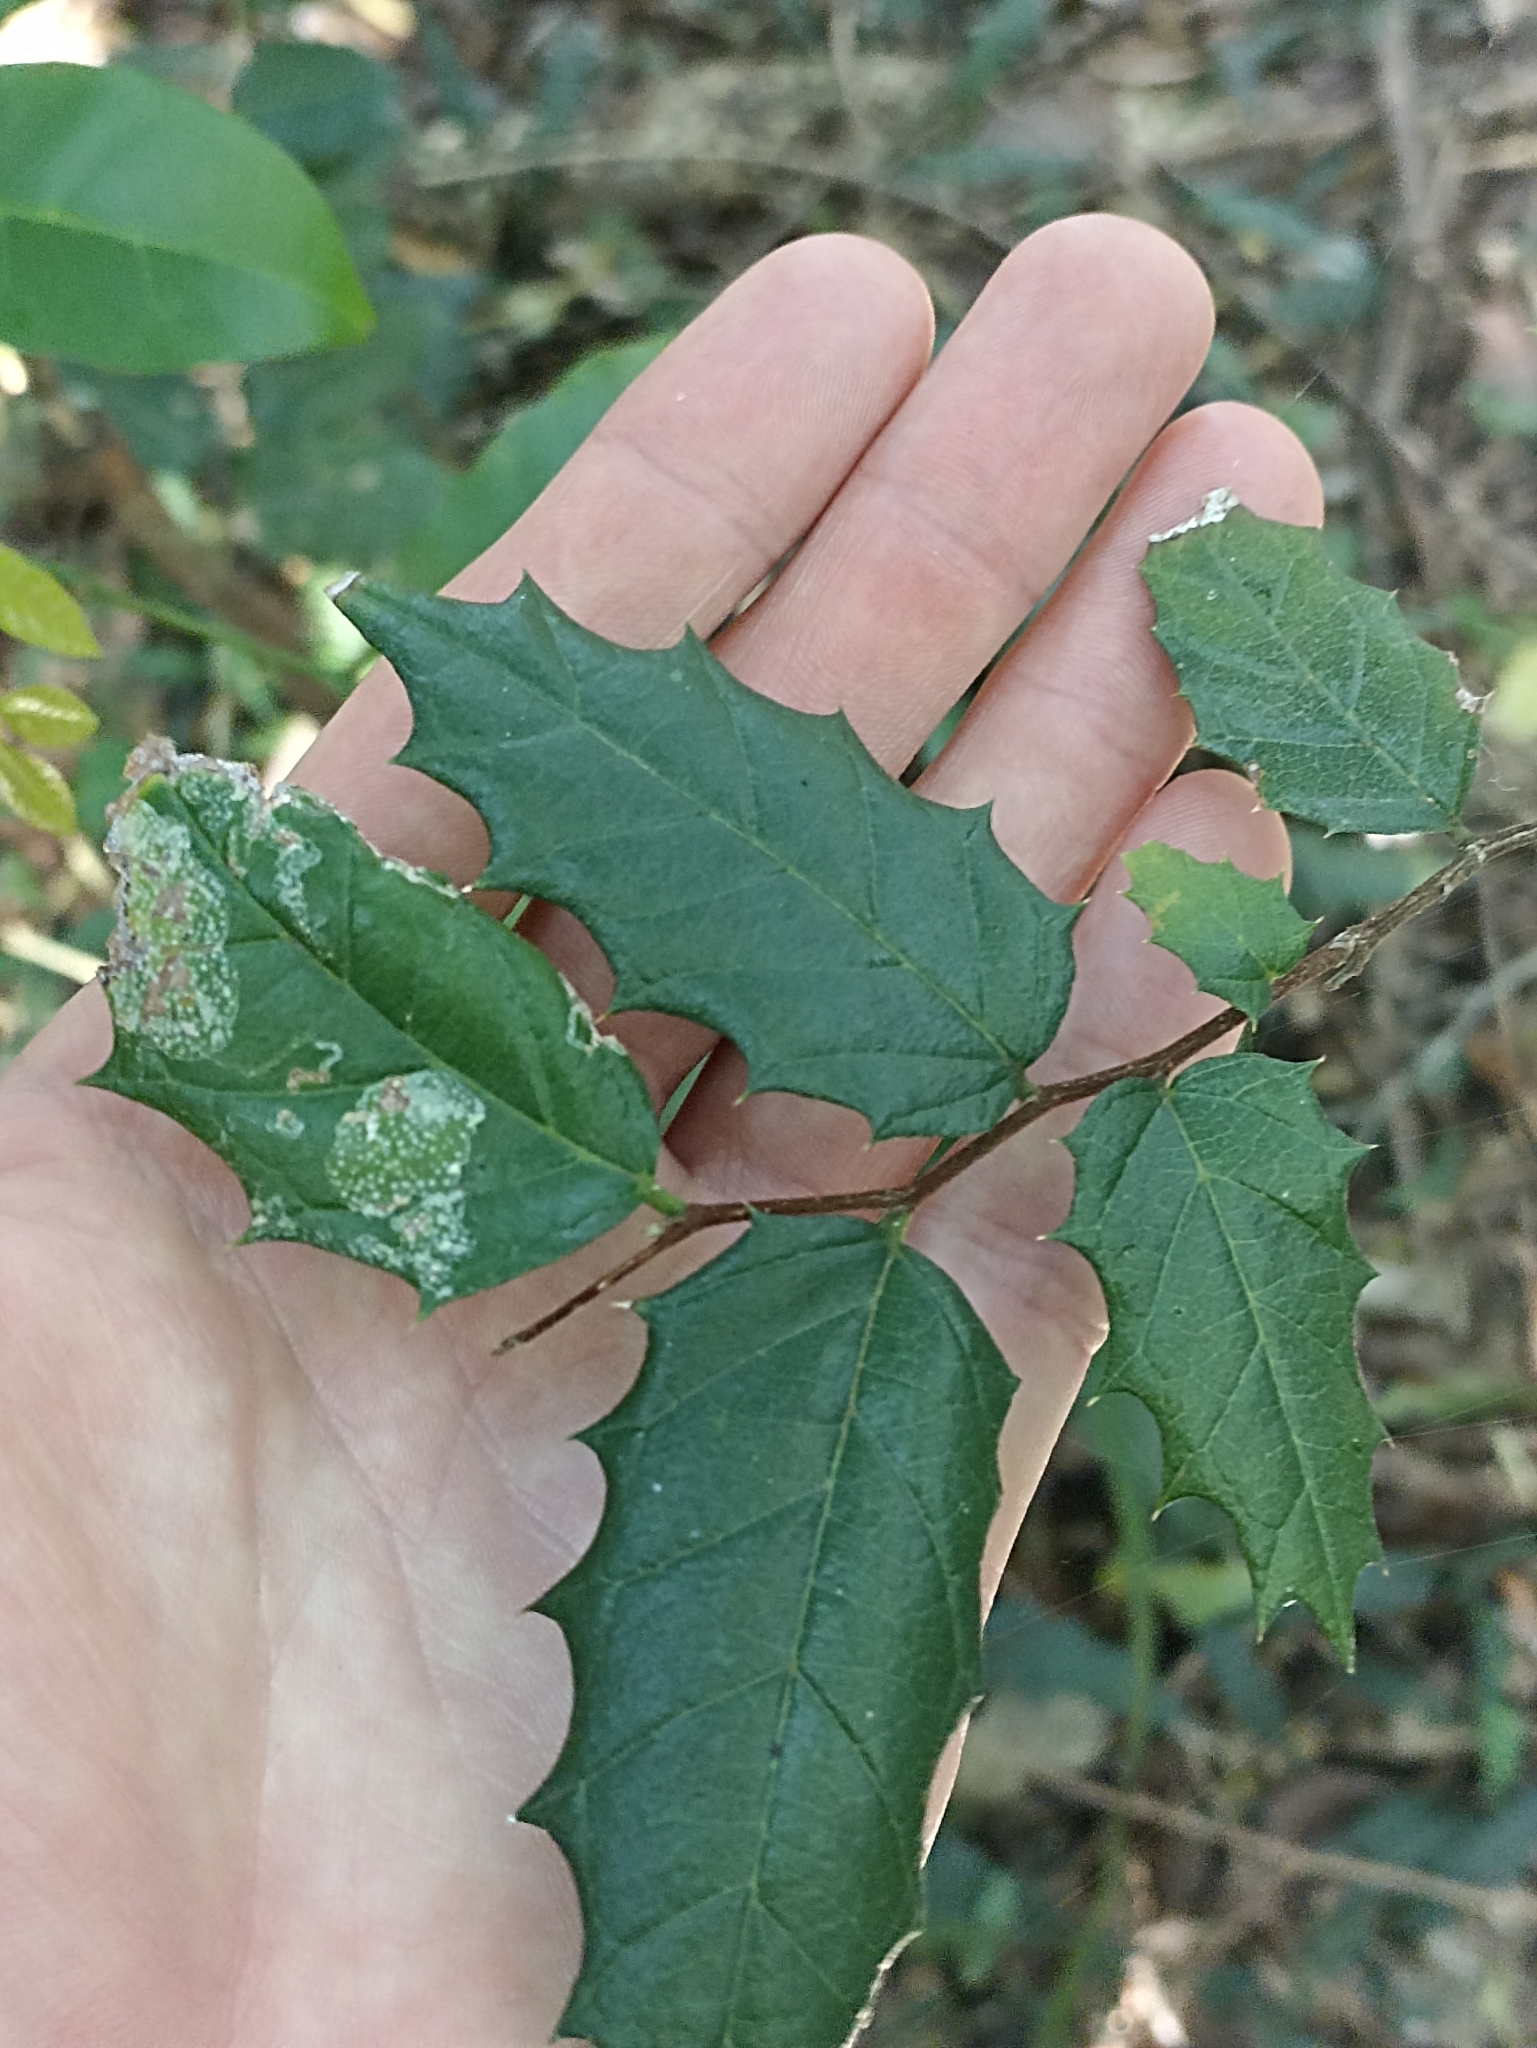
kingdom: Plantae
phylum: Tracheophyta
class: Magnoliopsida
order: Rosales
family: Cannabaceae
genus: Aphananthe
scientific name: Aphananthe philippinensis
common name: Wild holly
